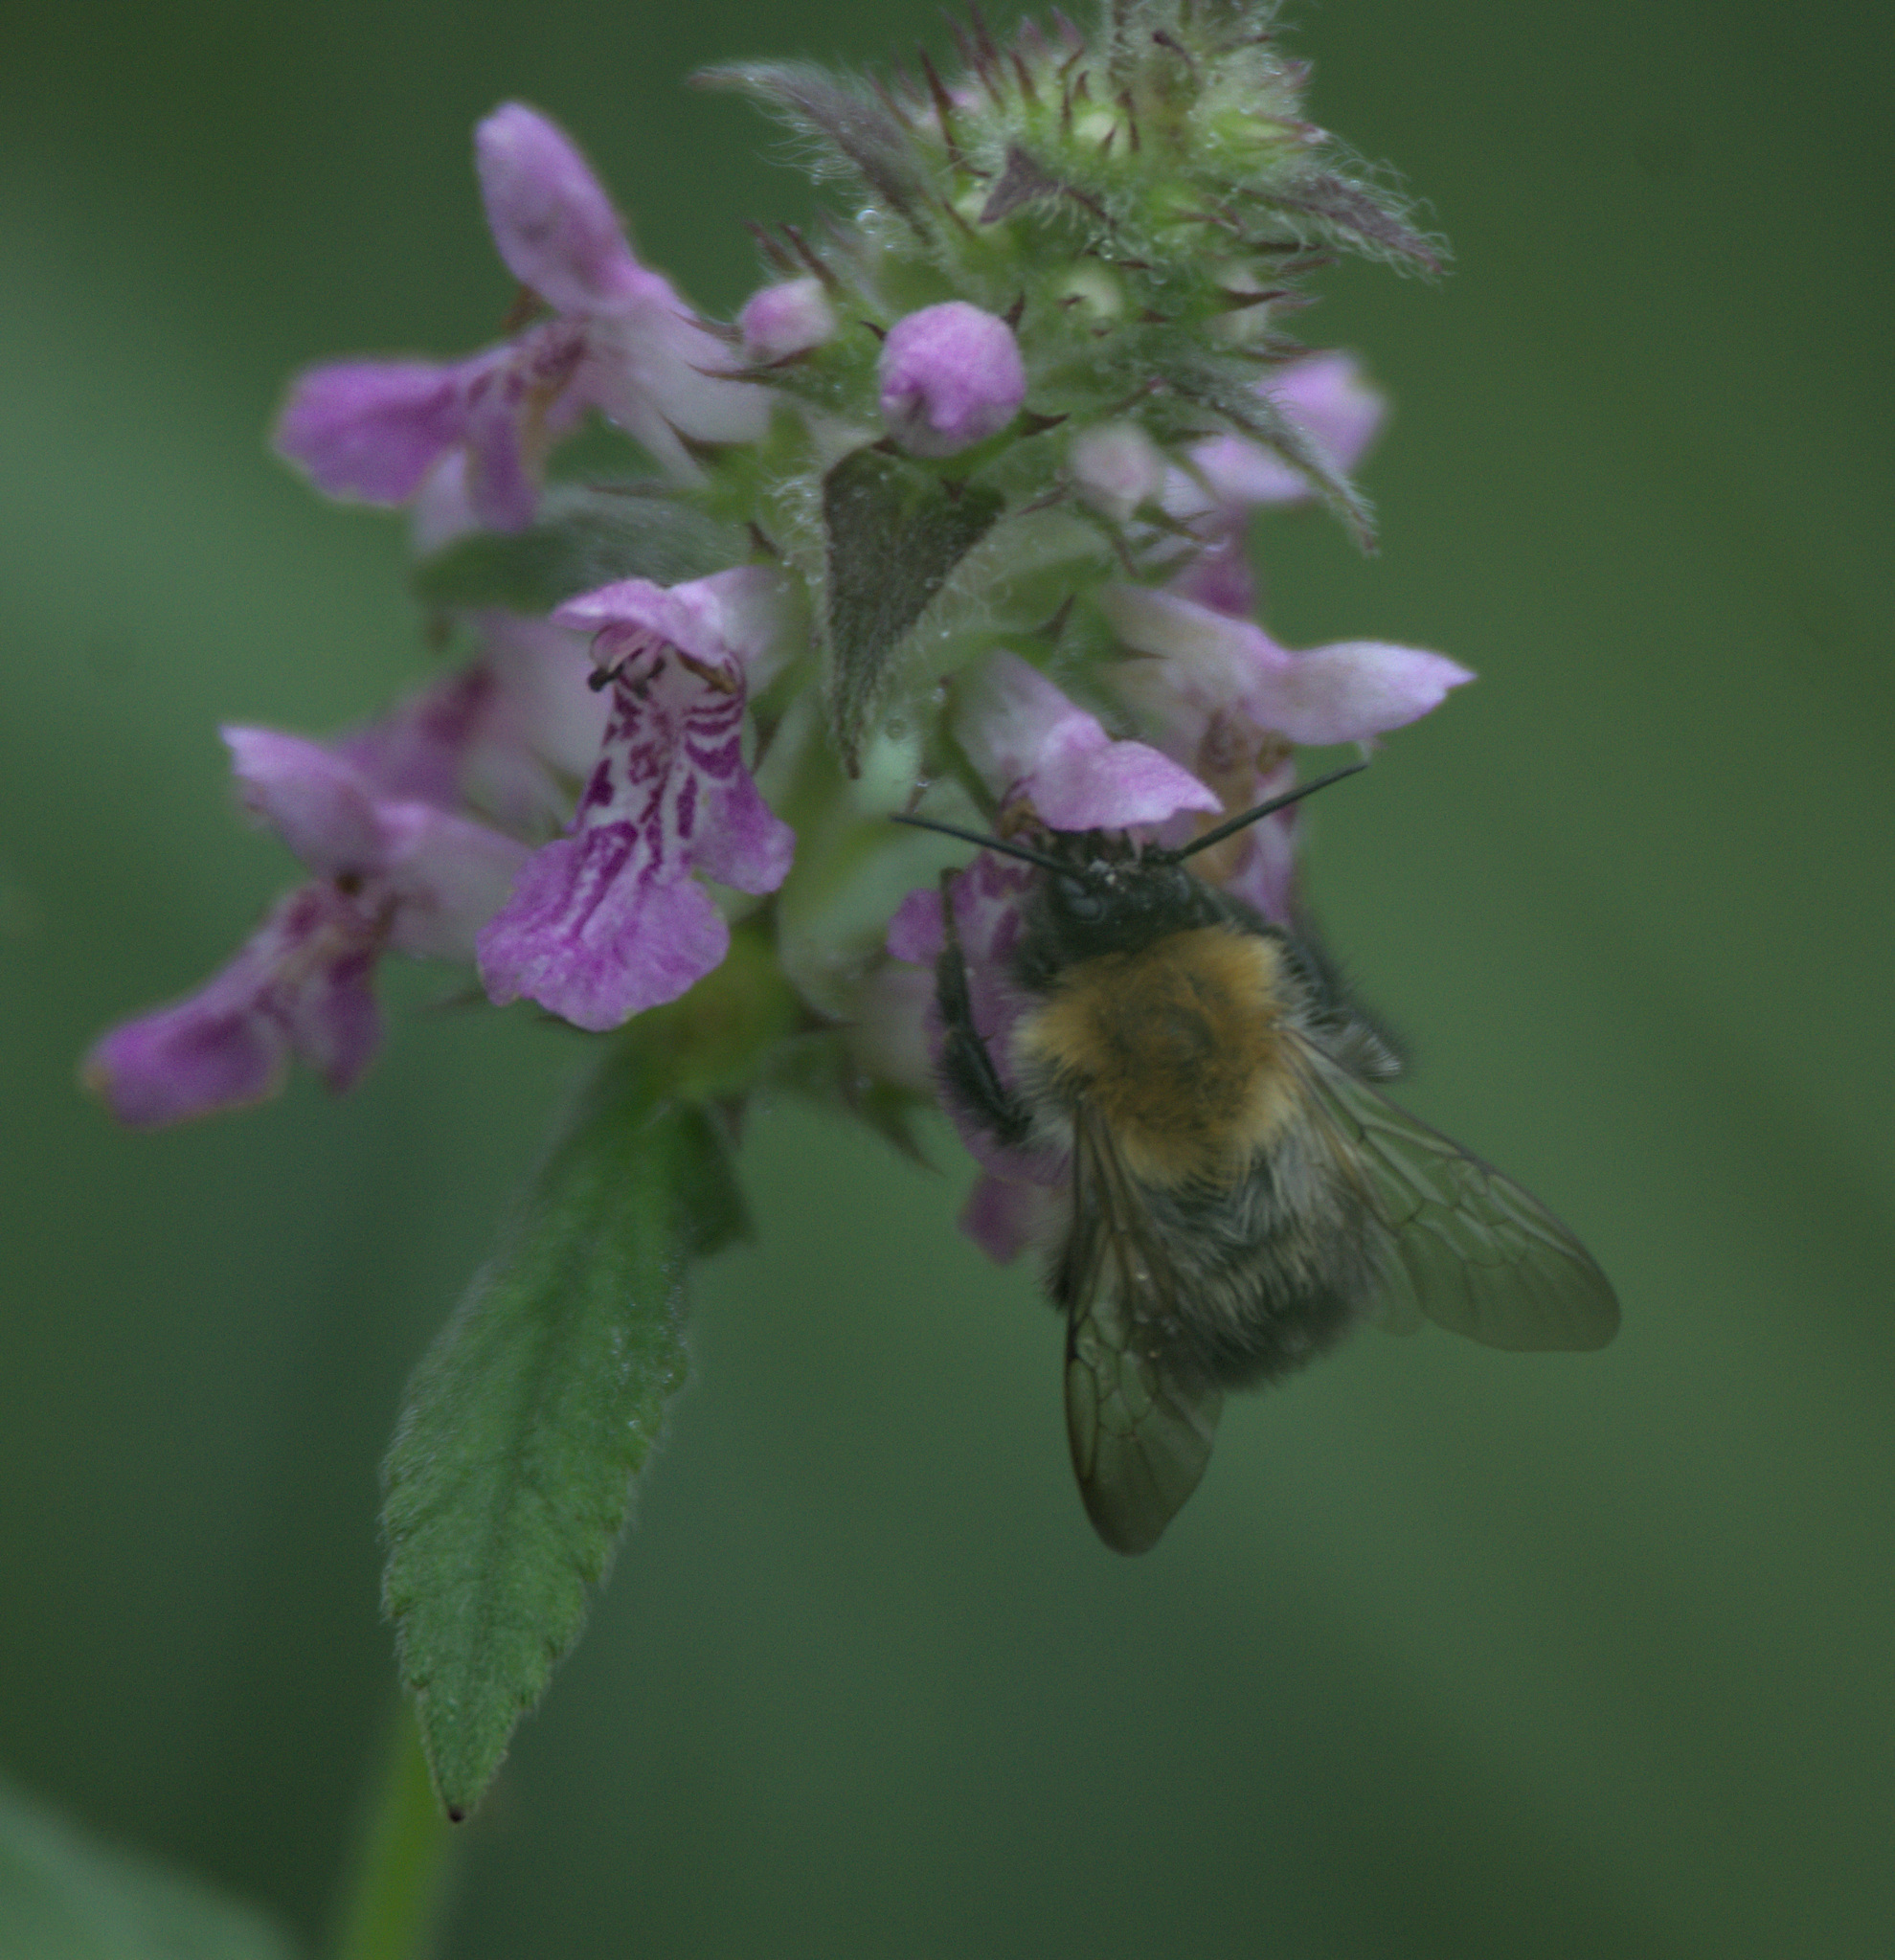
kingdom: Animalia
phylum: Arthropoda
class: Insecta
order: Hymenoptera
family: Apidae
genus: Bombus
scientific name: Bombus pascuorum
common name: Common carder bee
